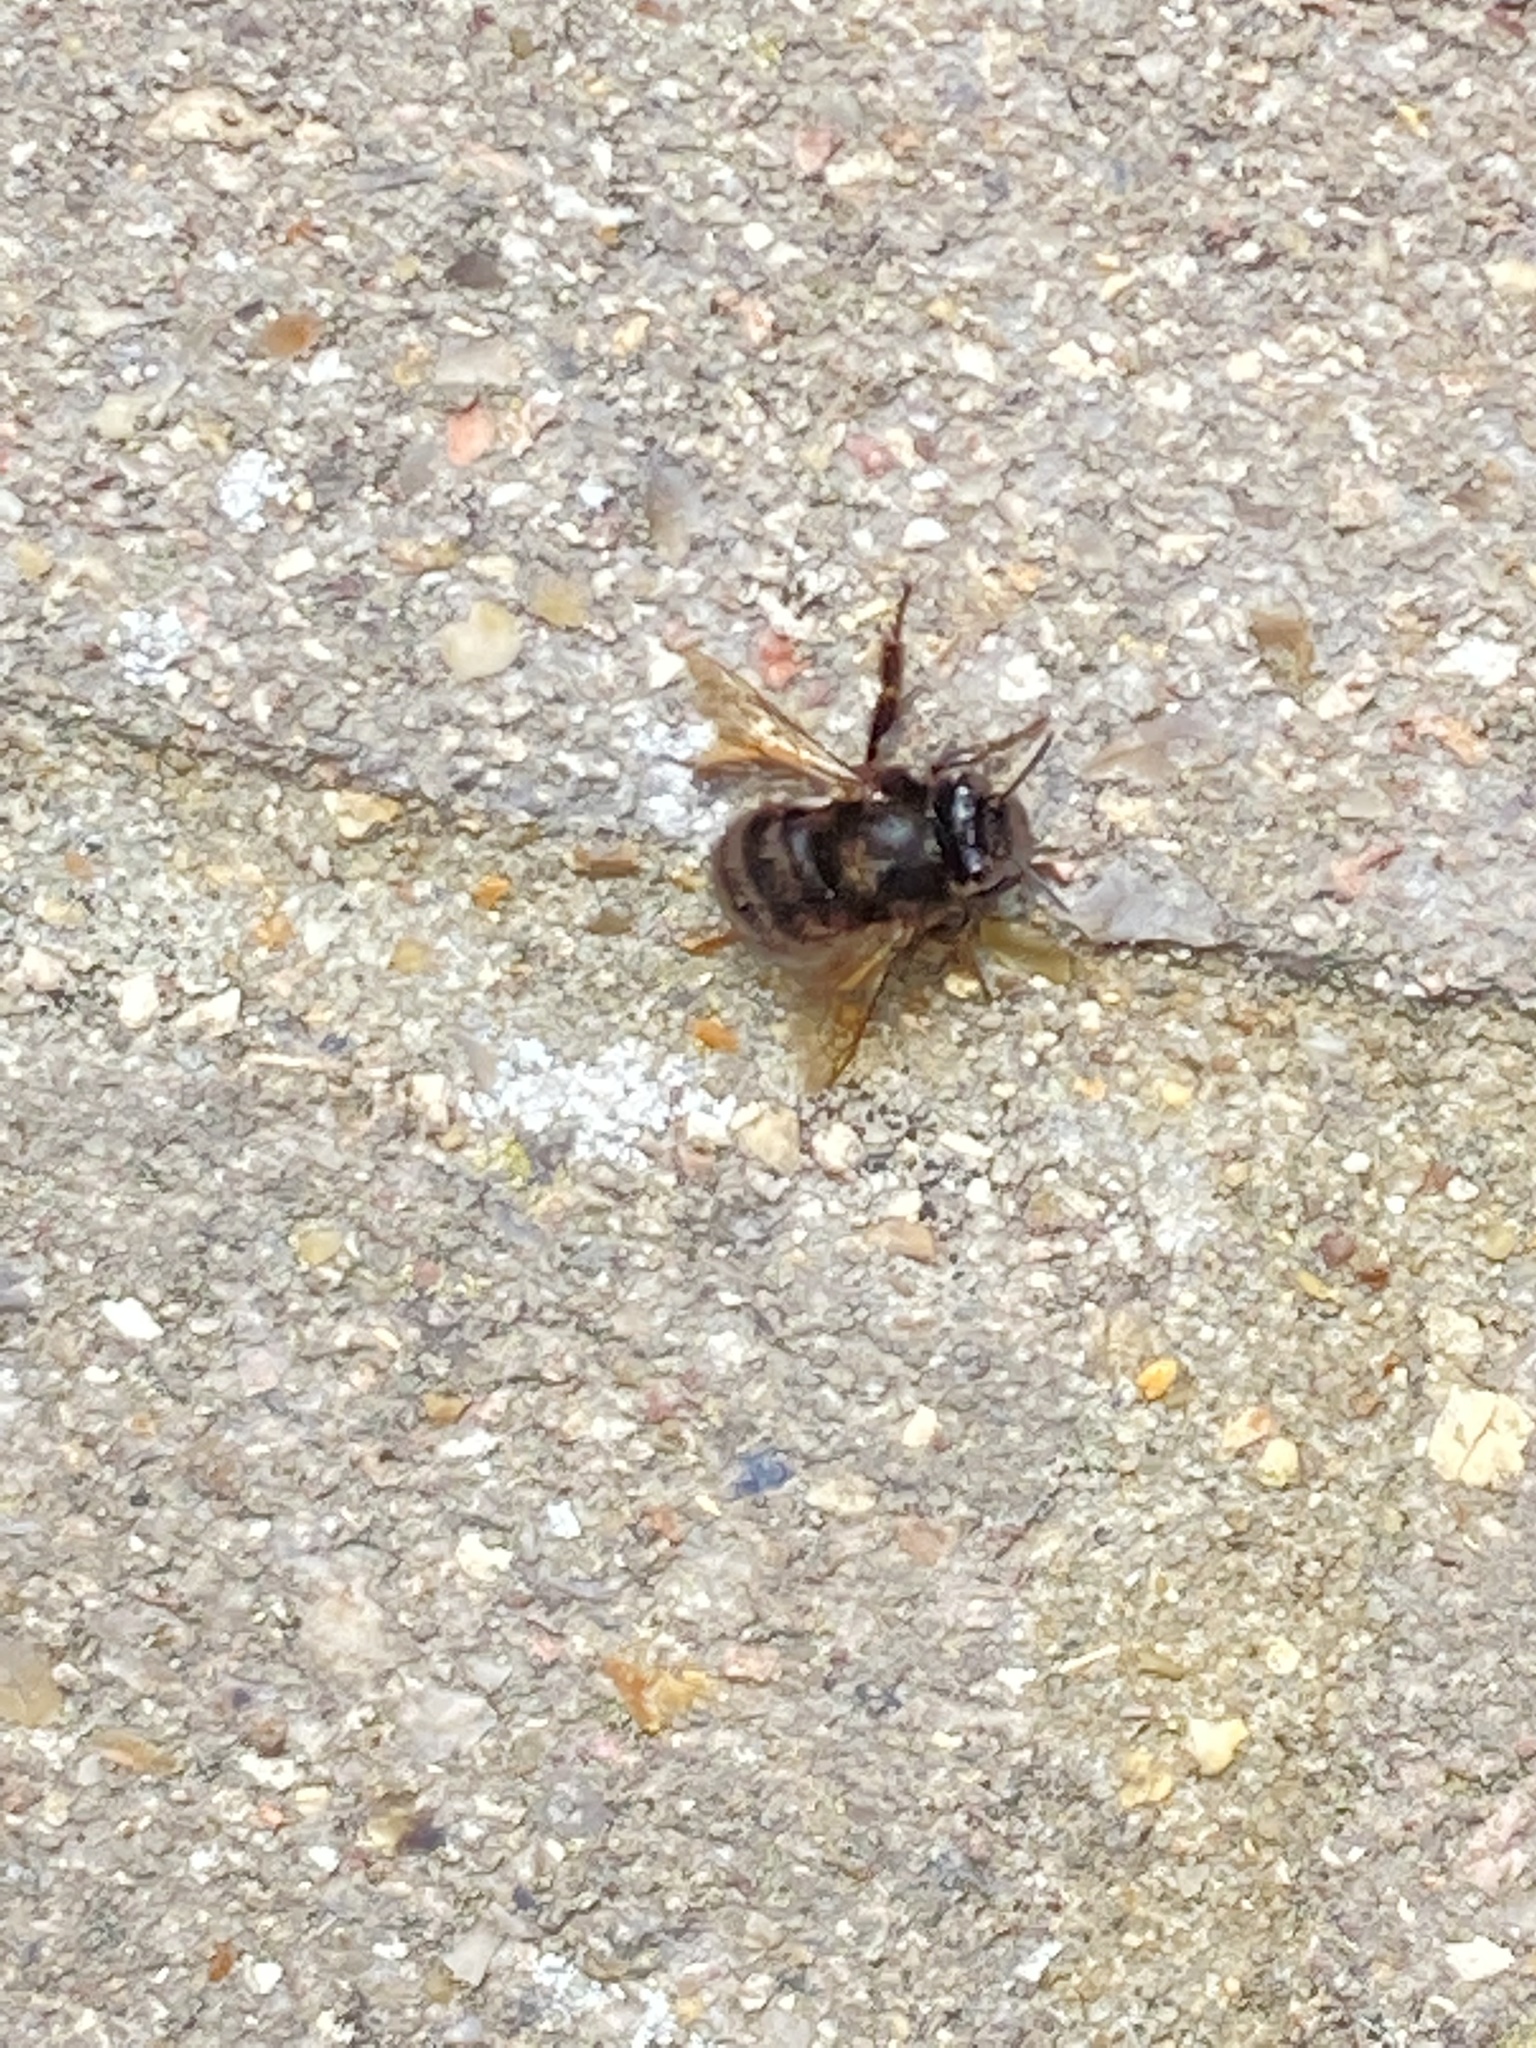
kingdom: Animalia
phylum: Arthropoda
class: Insecta
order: Hymenoptera
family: Apidae
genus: Anthophora
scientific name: Anthophora plumipes
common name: Hairy-footed flower bee
